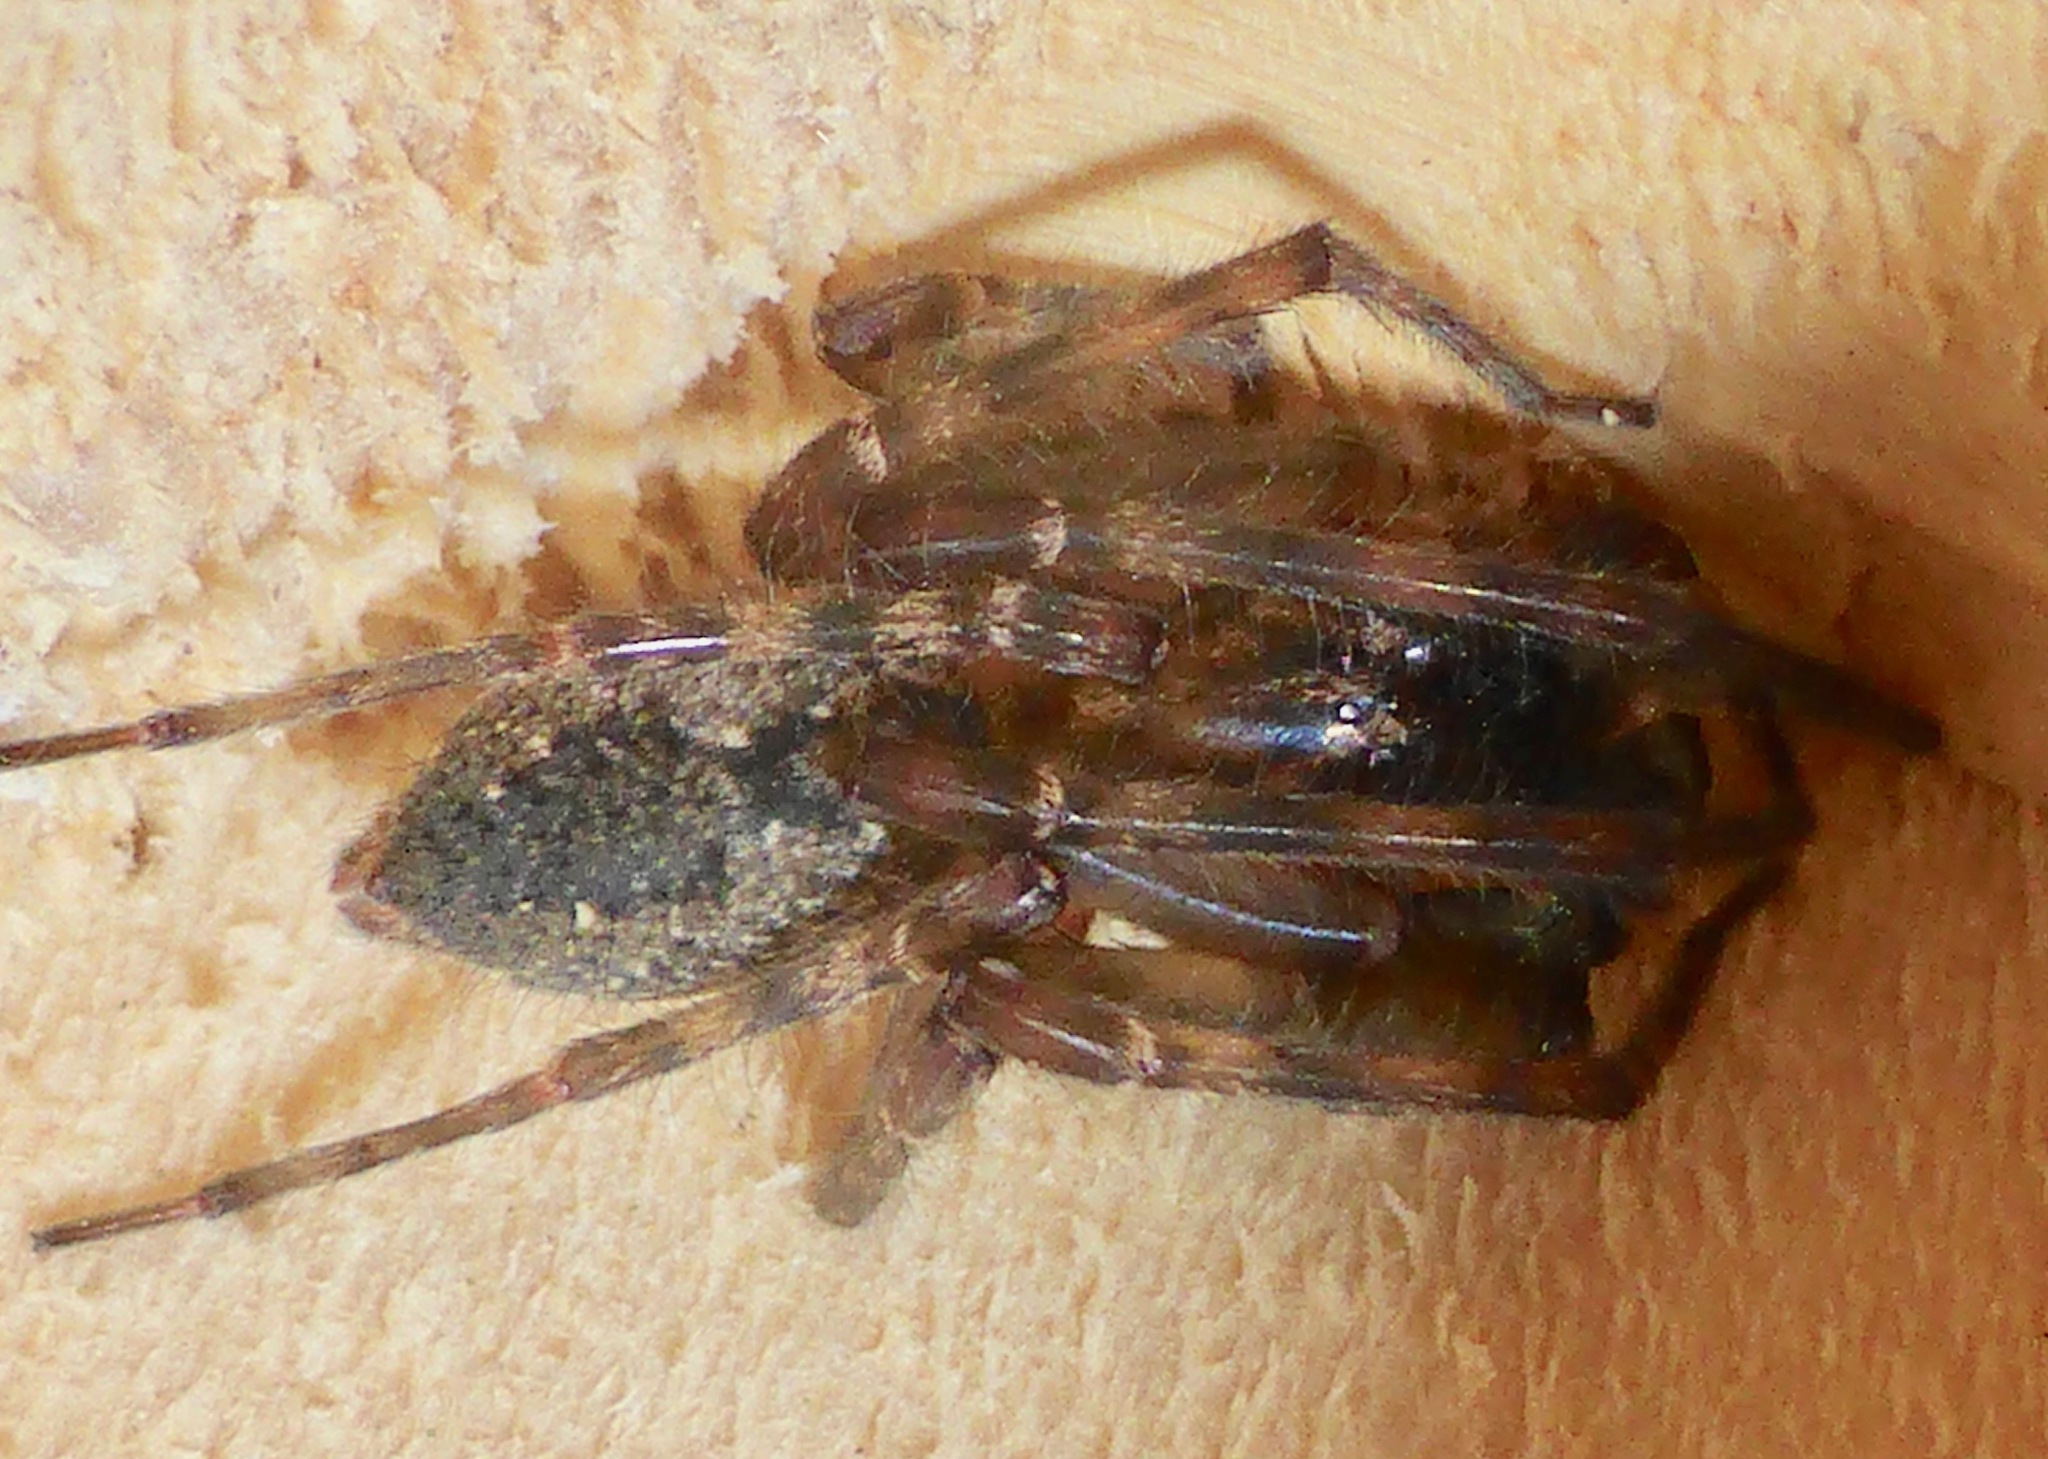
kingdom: Animalia
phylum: Arthropoda
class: Arachnida
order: Araneae
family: Desidae
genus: Nuisiana
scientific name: Nuisiana arboris
